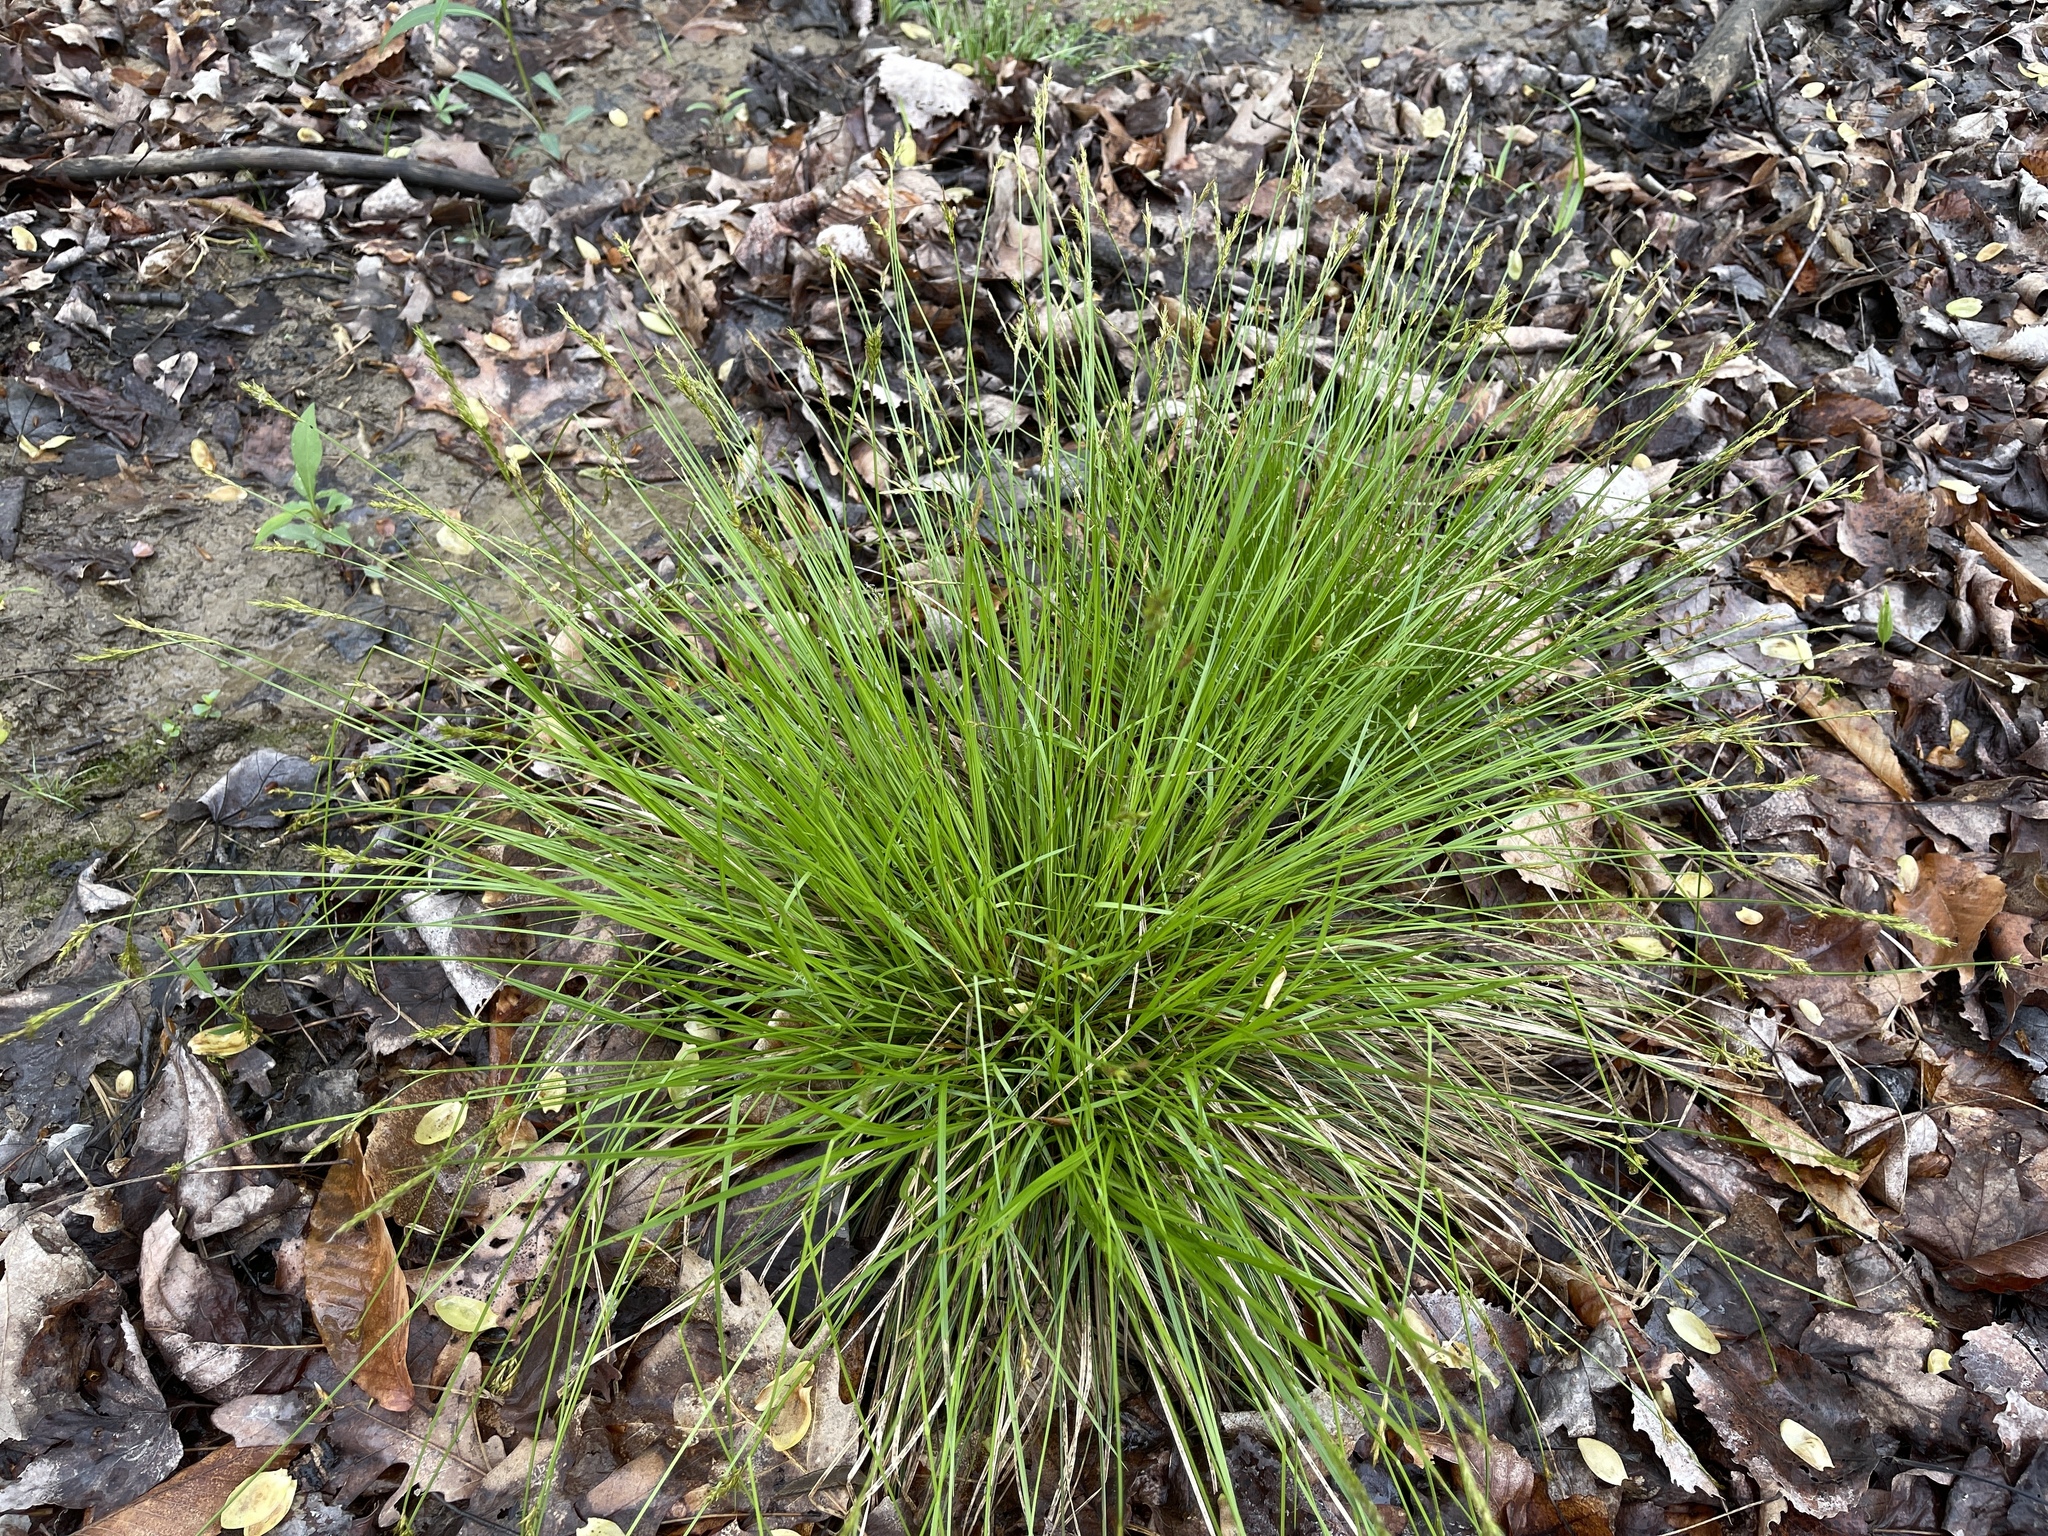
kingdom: Plantae
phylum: Tracheophyta
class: Liliopsida
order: Poales
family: Cyperaceae
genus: Carex
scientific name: Carex bromoides
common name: Brome hummock sedge
